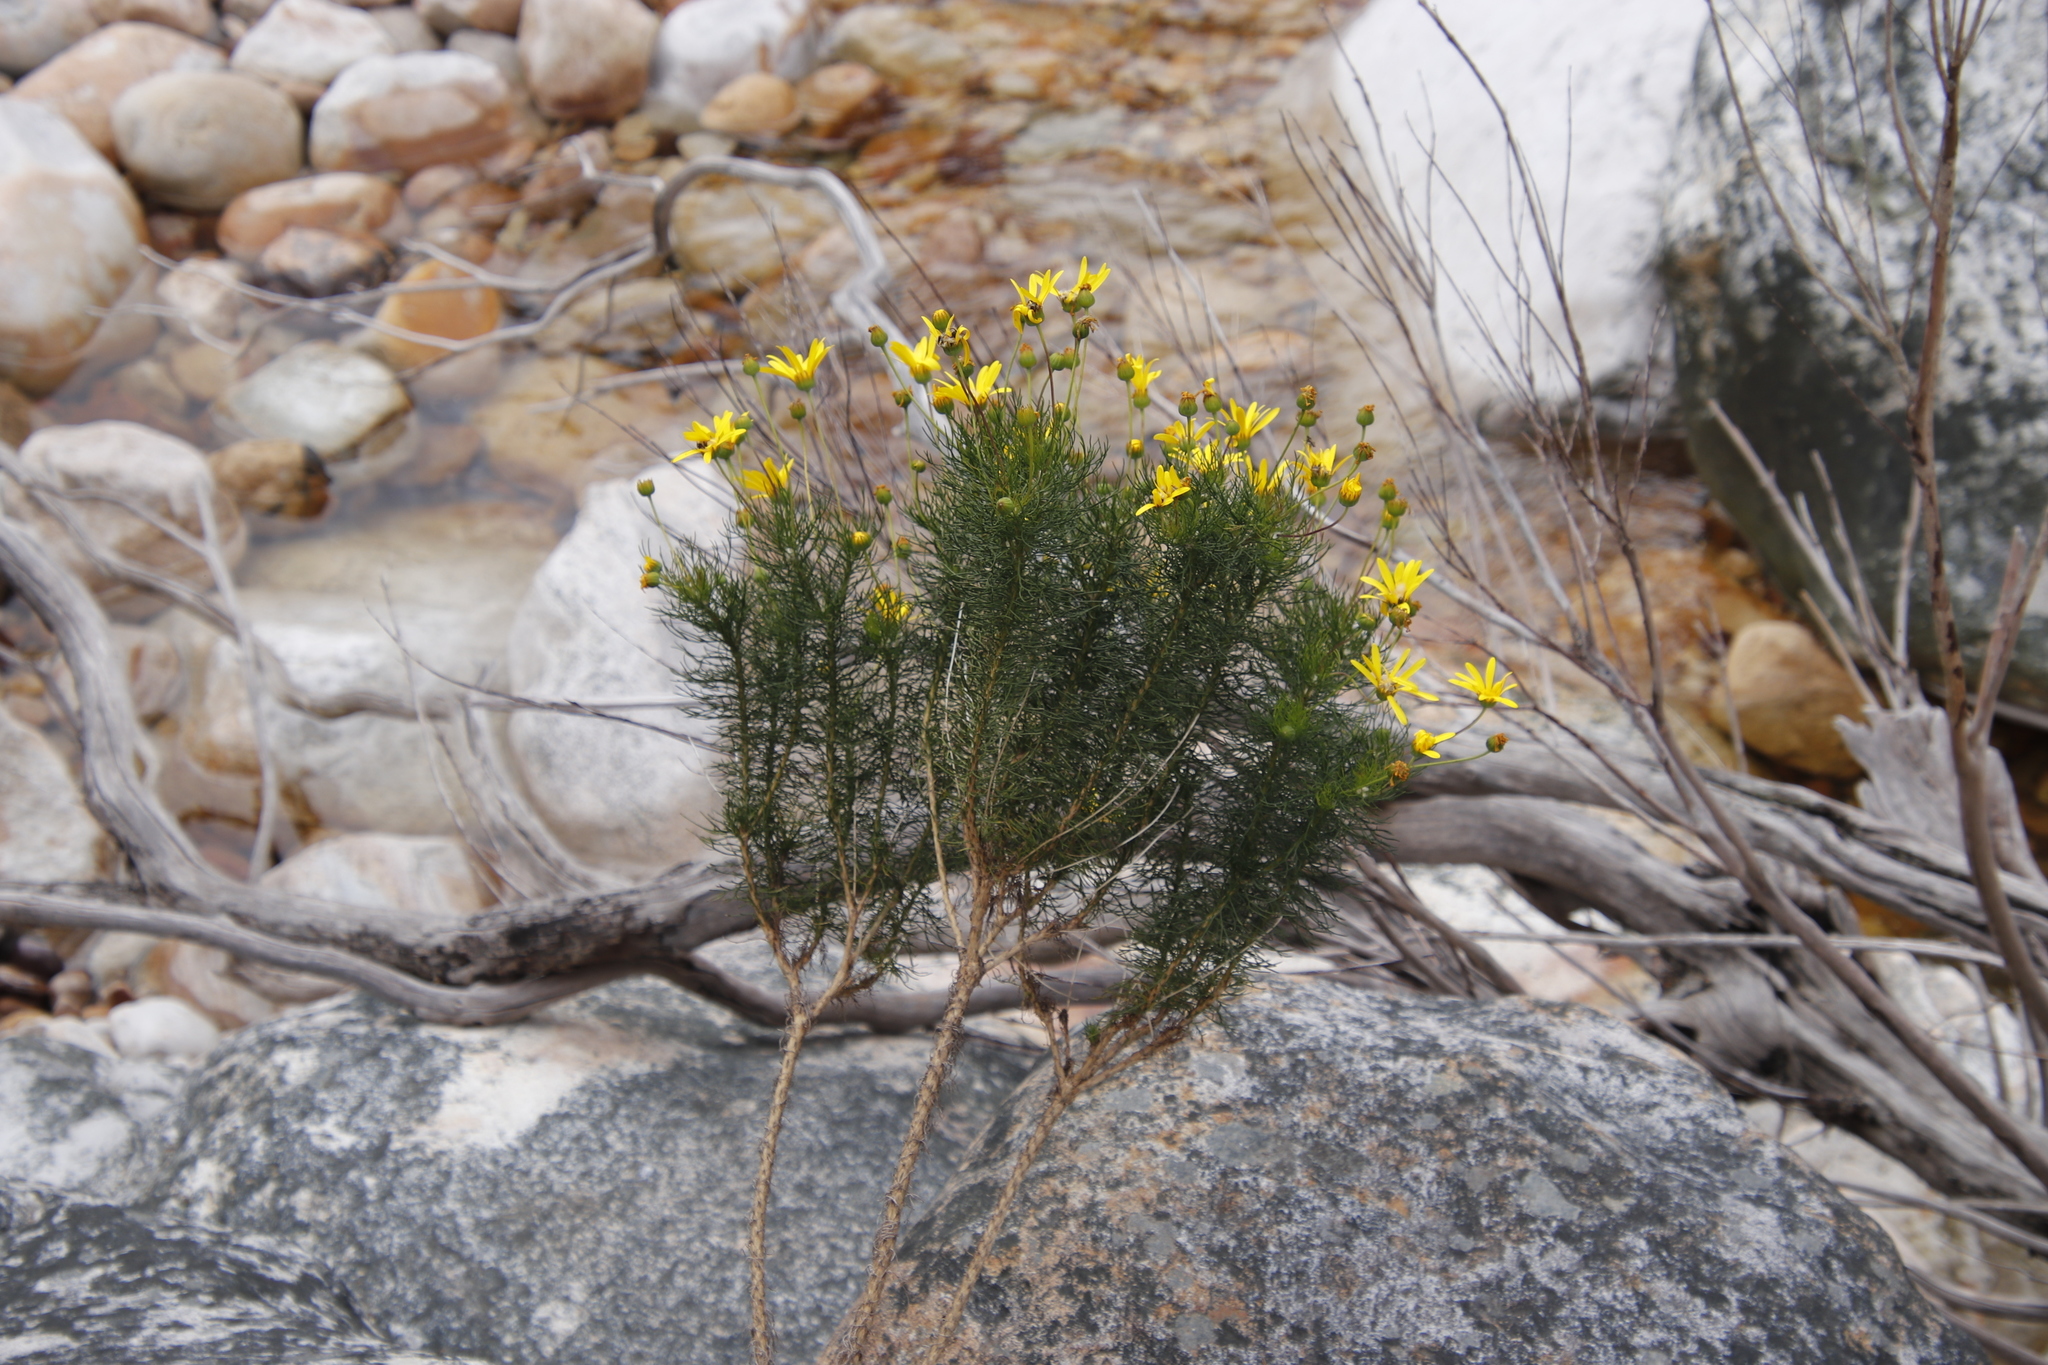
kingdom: Plantae
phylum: Tracheophyta
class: Magnoliopsida
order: Asterales
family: Asteraceae
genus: Euryops
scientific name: Euryops abrotanifolius
